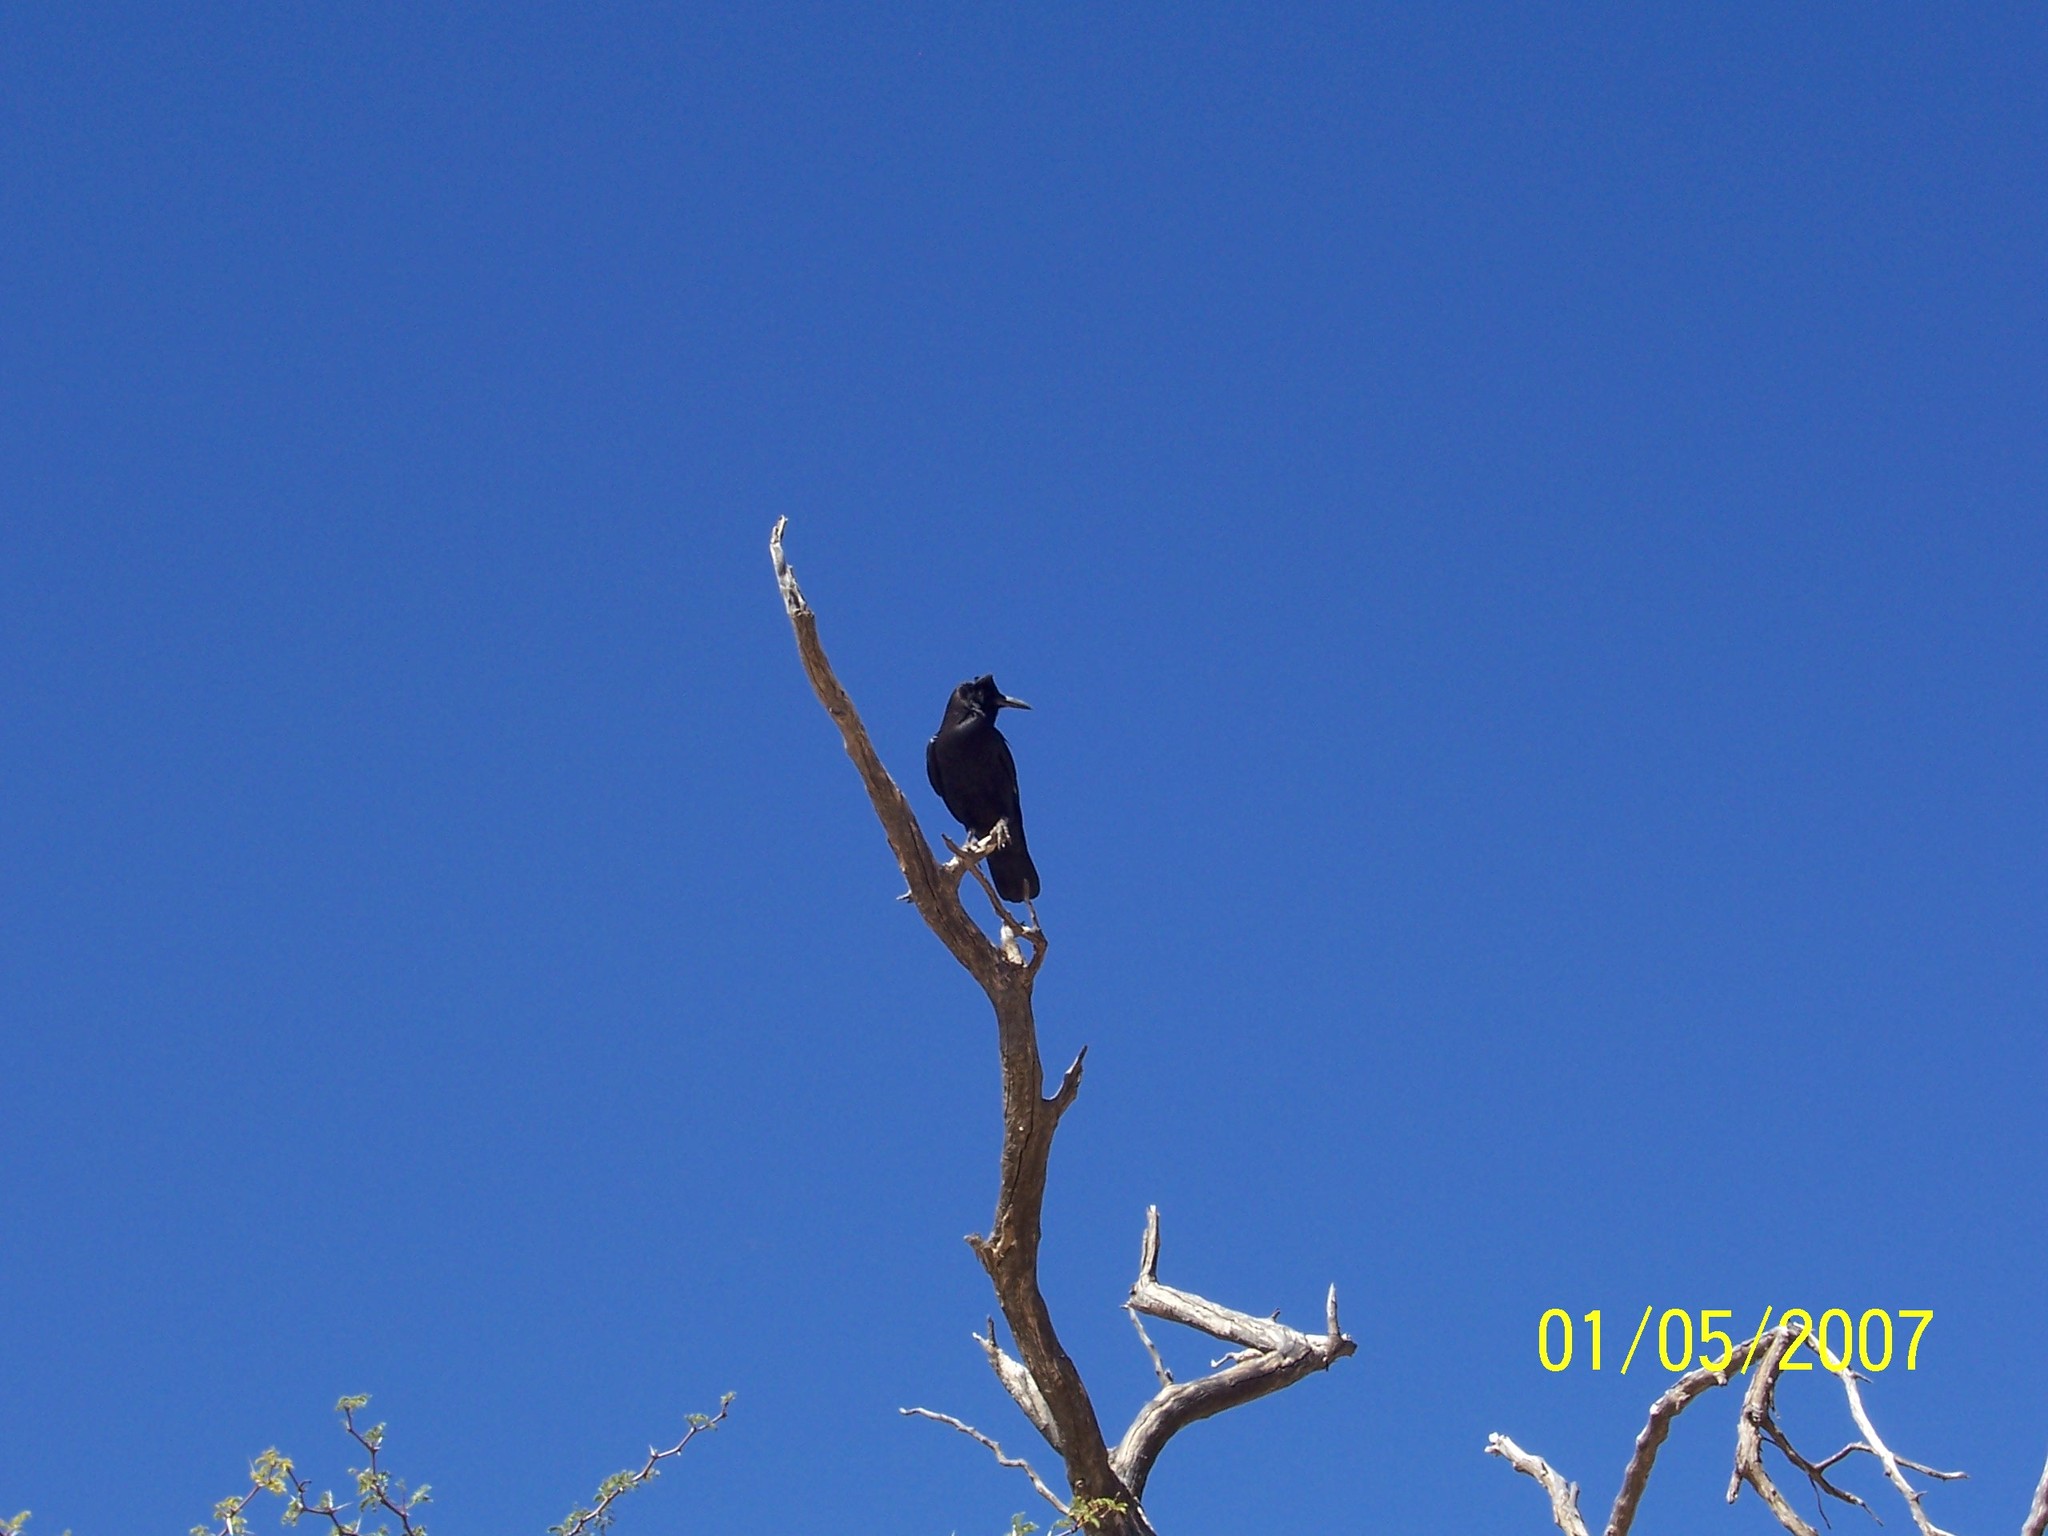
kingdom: Animalia
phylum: Chordata
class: Aves
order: Passeriformes
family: Corvidae
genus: Corvus
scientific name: Corvus capensis
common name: Cape crow
